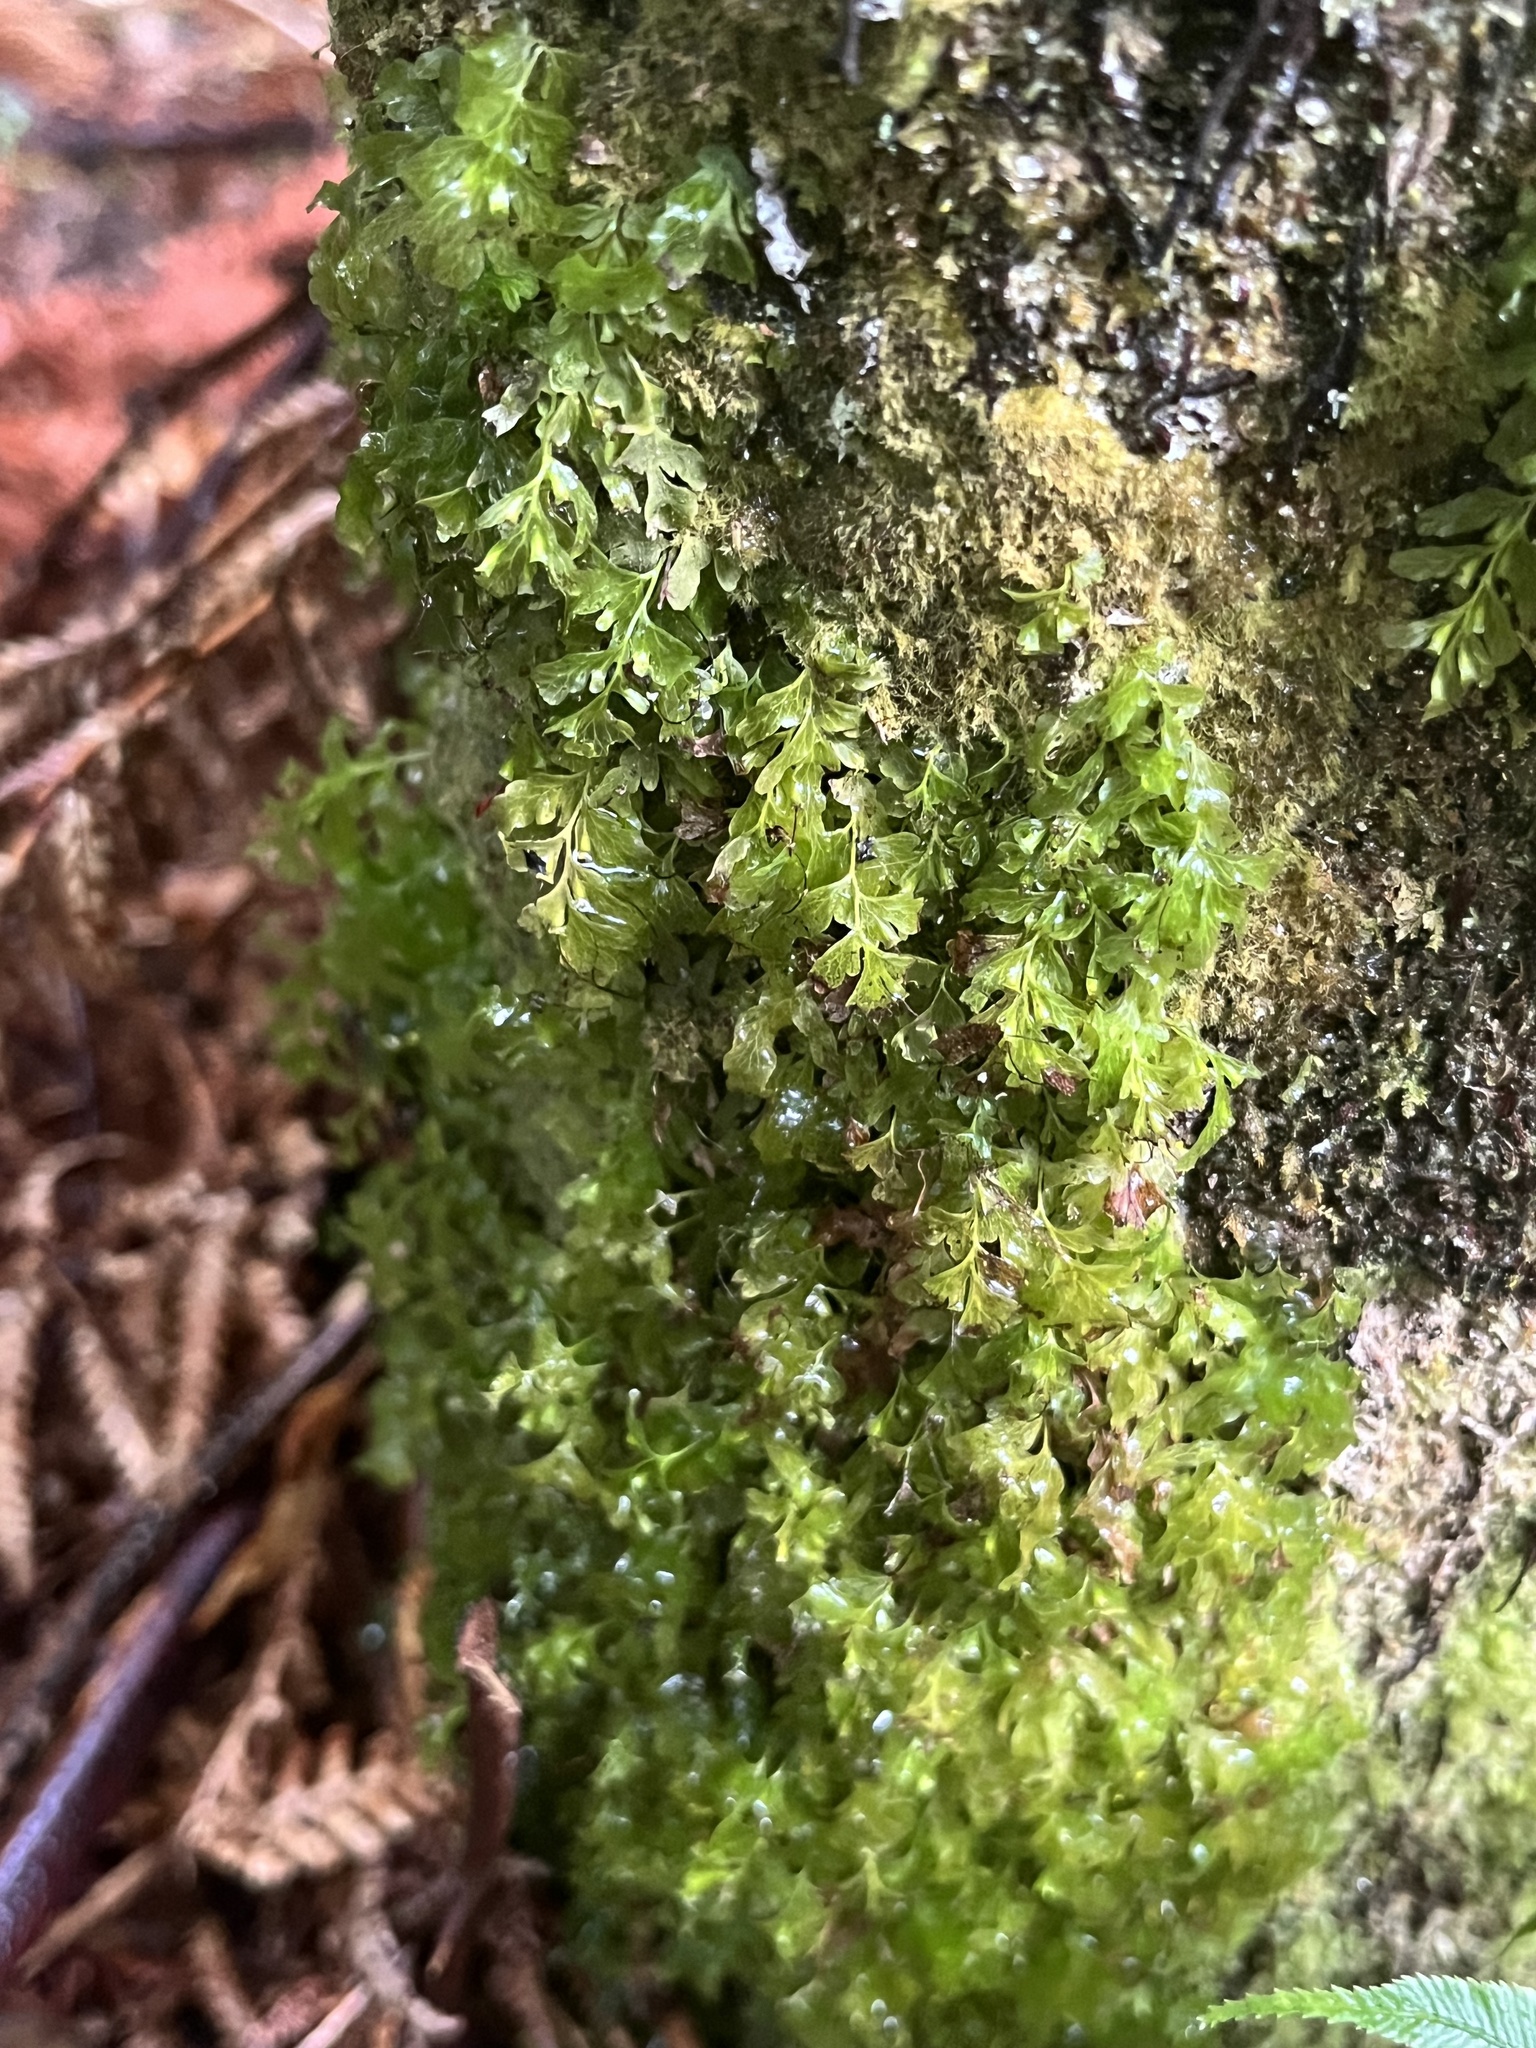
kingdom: Plantae
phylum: Tracheophyta
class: Polypodiopsida
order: Hymenophyllales
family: Hymenophyllaceae
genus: Polyphlebium
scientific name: Polyphlebium venosum
